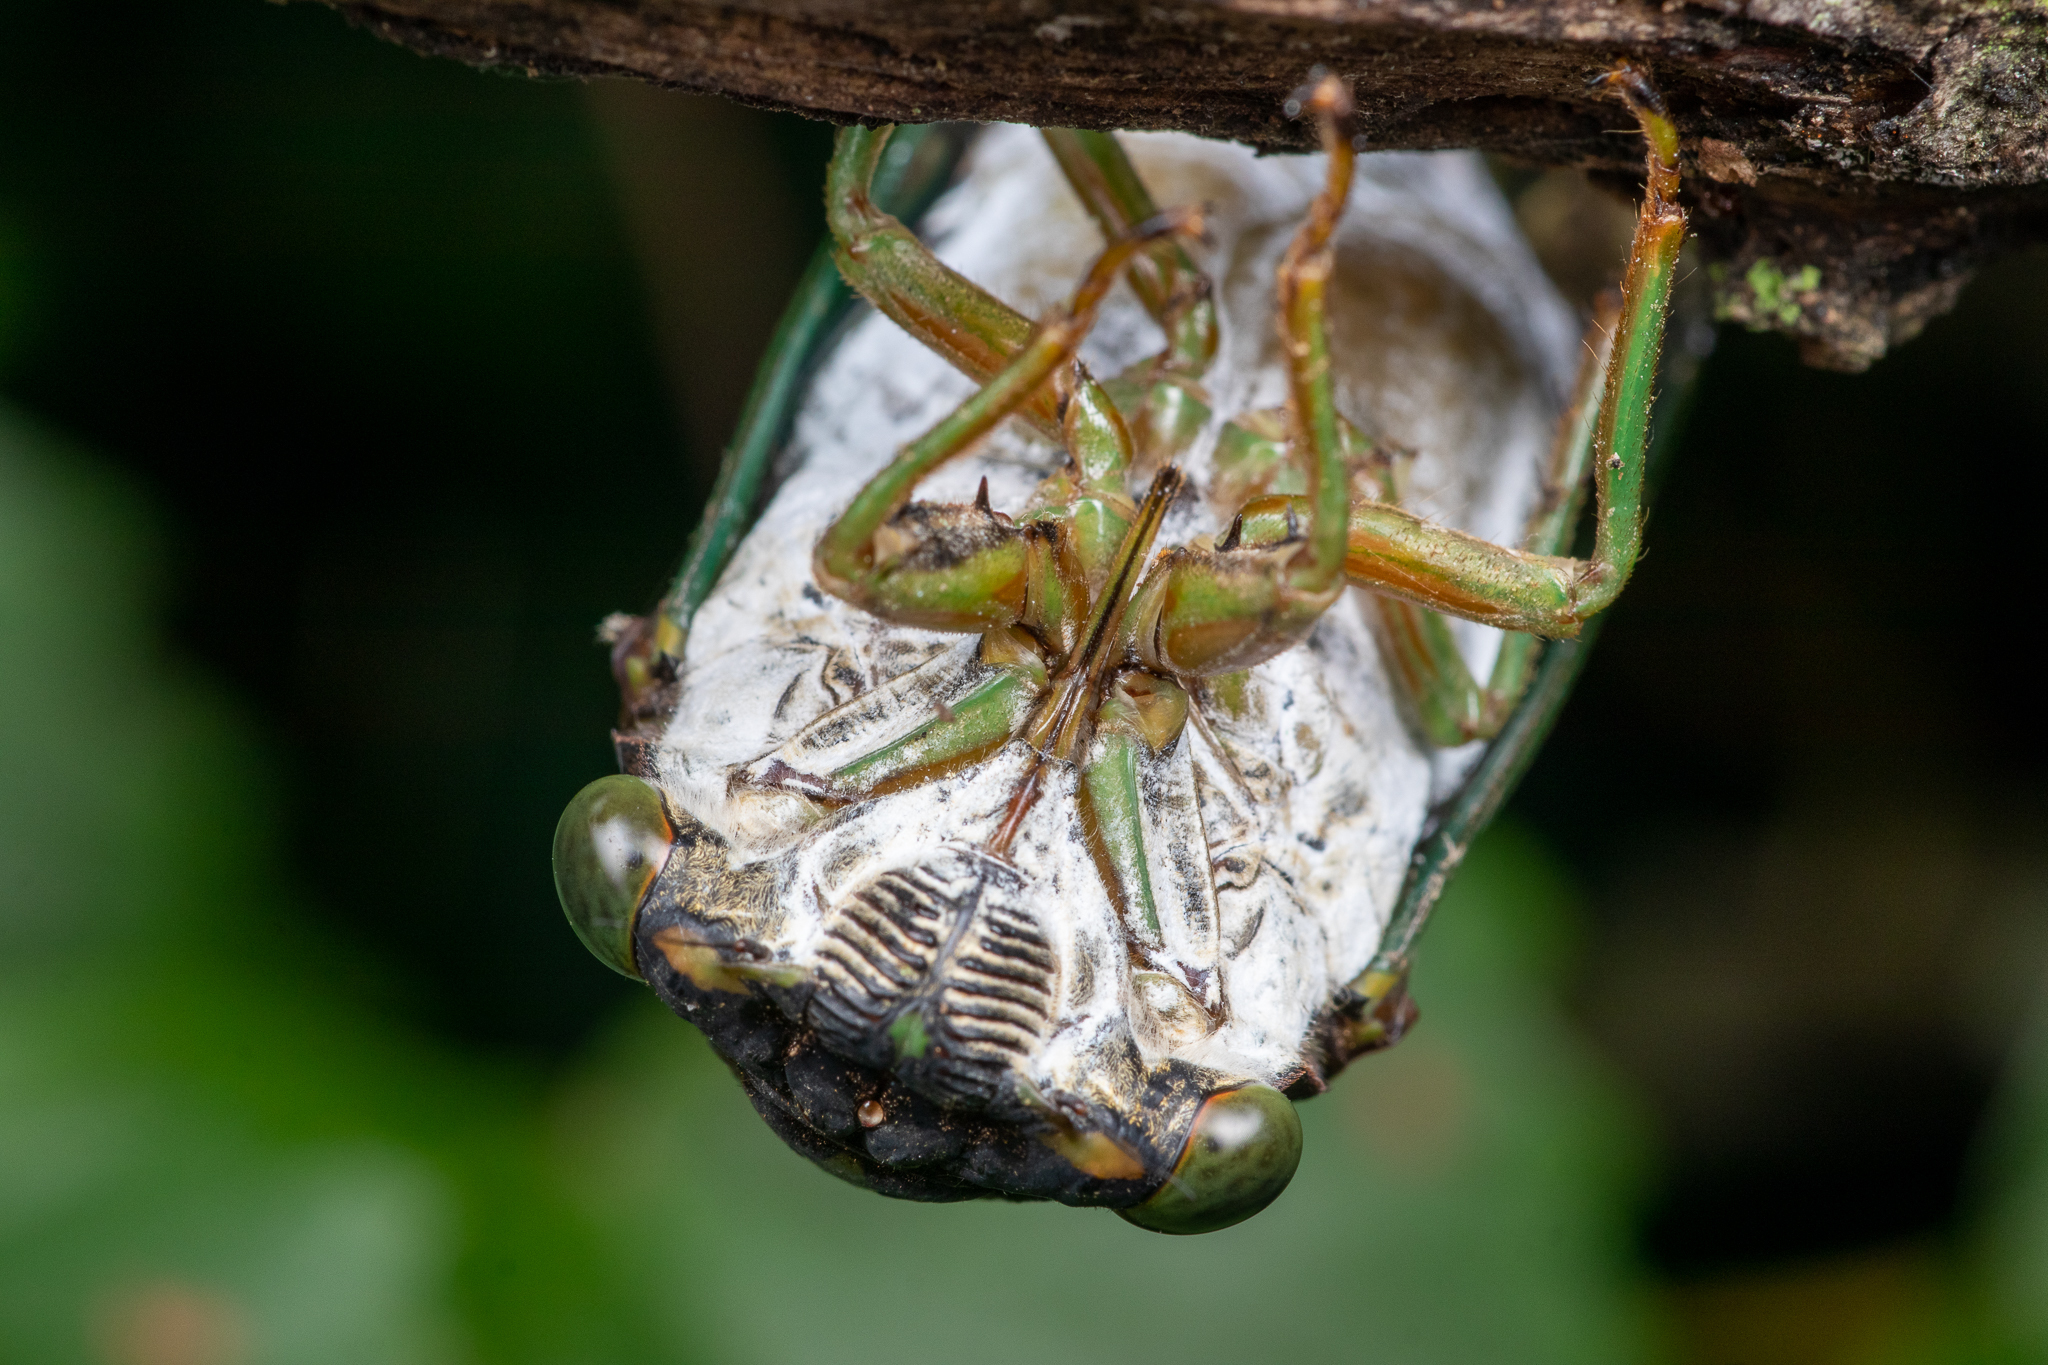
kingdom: Animalia
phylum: Arthropoda
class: Insecta
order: Hemiptera
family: Cicadidae
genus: Neotibicen
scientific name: Neotibicen tibicen
